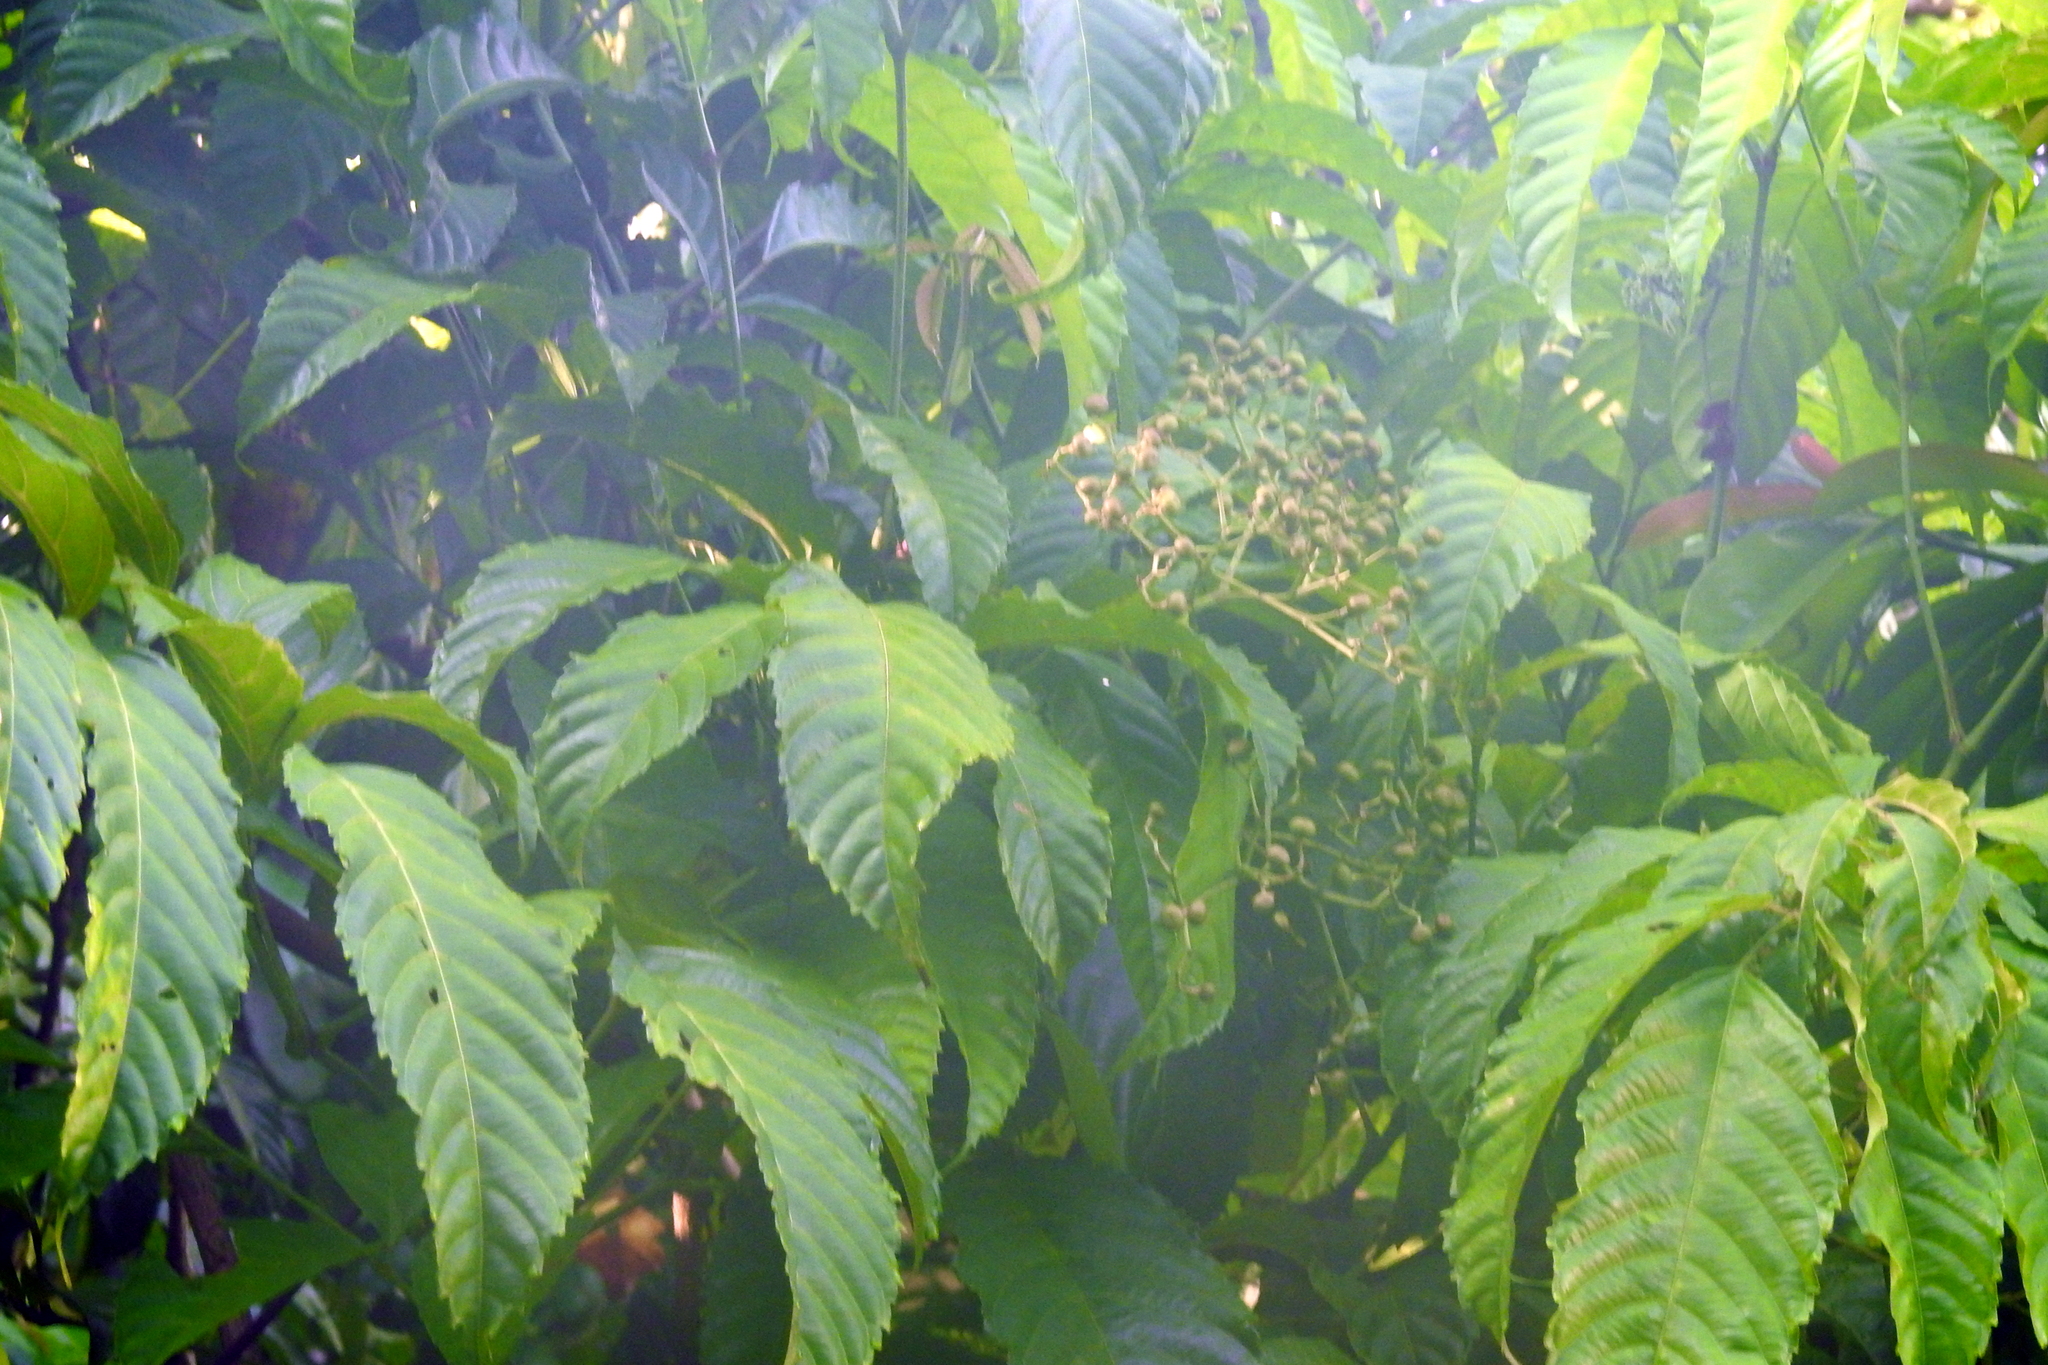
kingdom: Plantae
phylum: Tracheophyta
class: Magnoliopsida
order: Vitales
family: Vitaceae
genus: Leea
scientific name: Leea indica
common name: Bandicoot-berry
